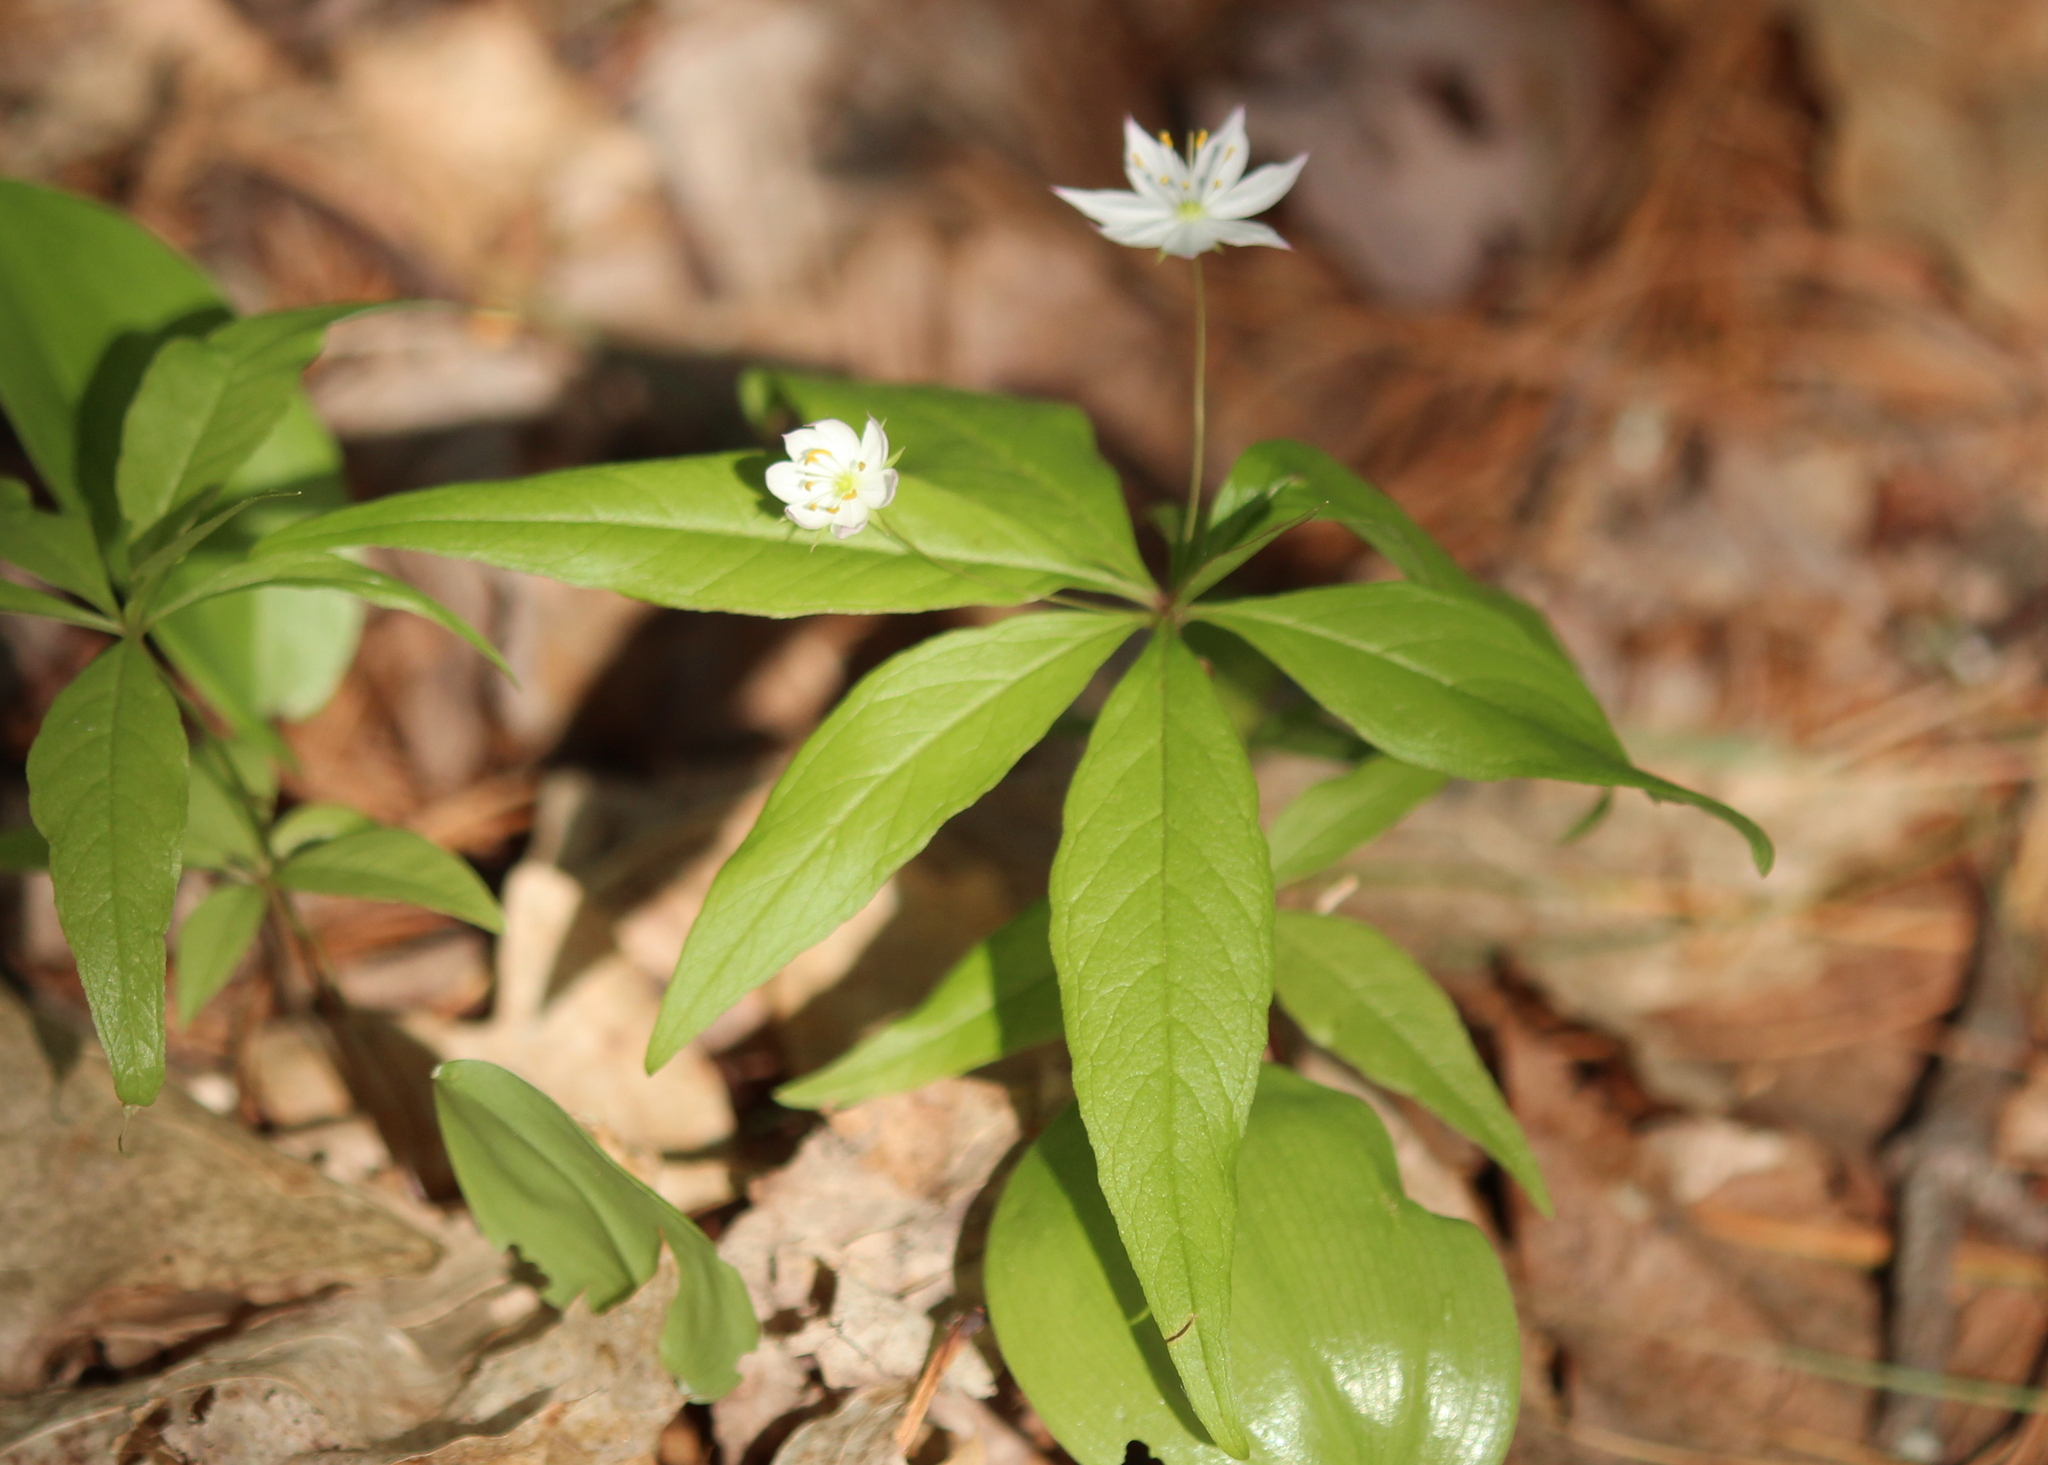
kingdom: Plantae
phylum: Tracheophyta
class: Magnoliopsida
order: Ericales
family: Primulaceae
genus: Lysimachia
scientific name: Lysimachia borealis
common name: American starflower
